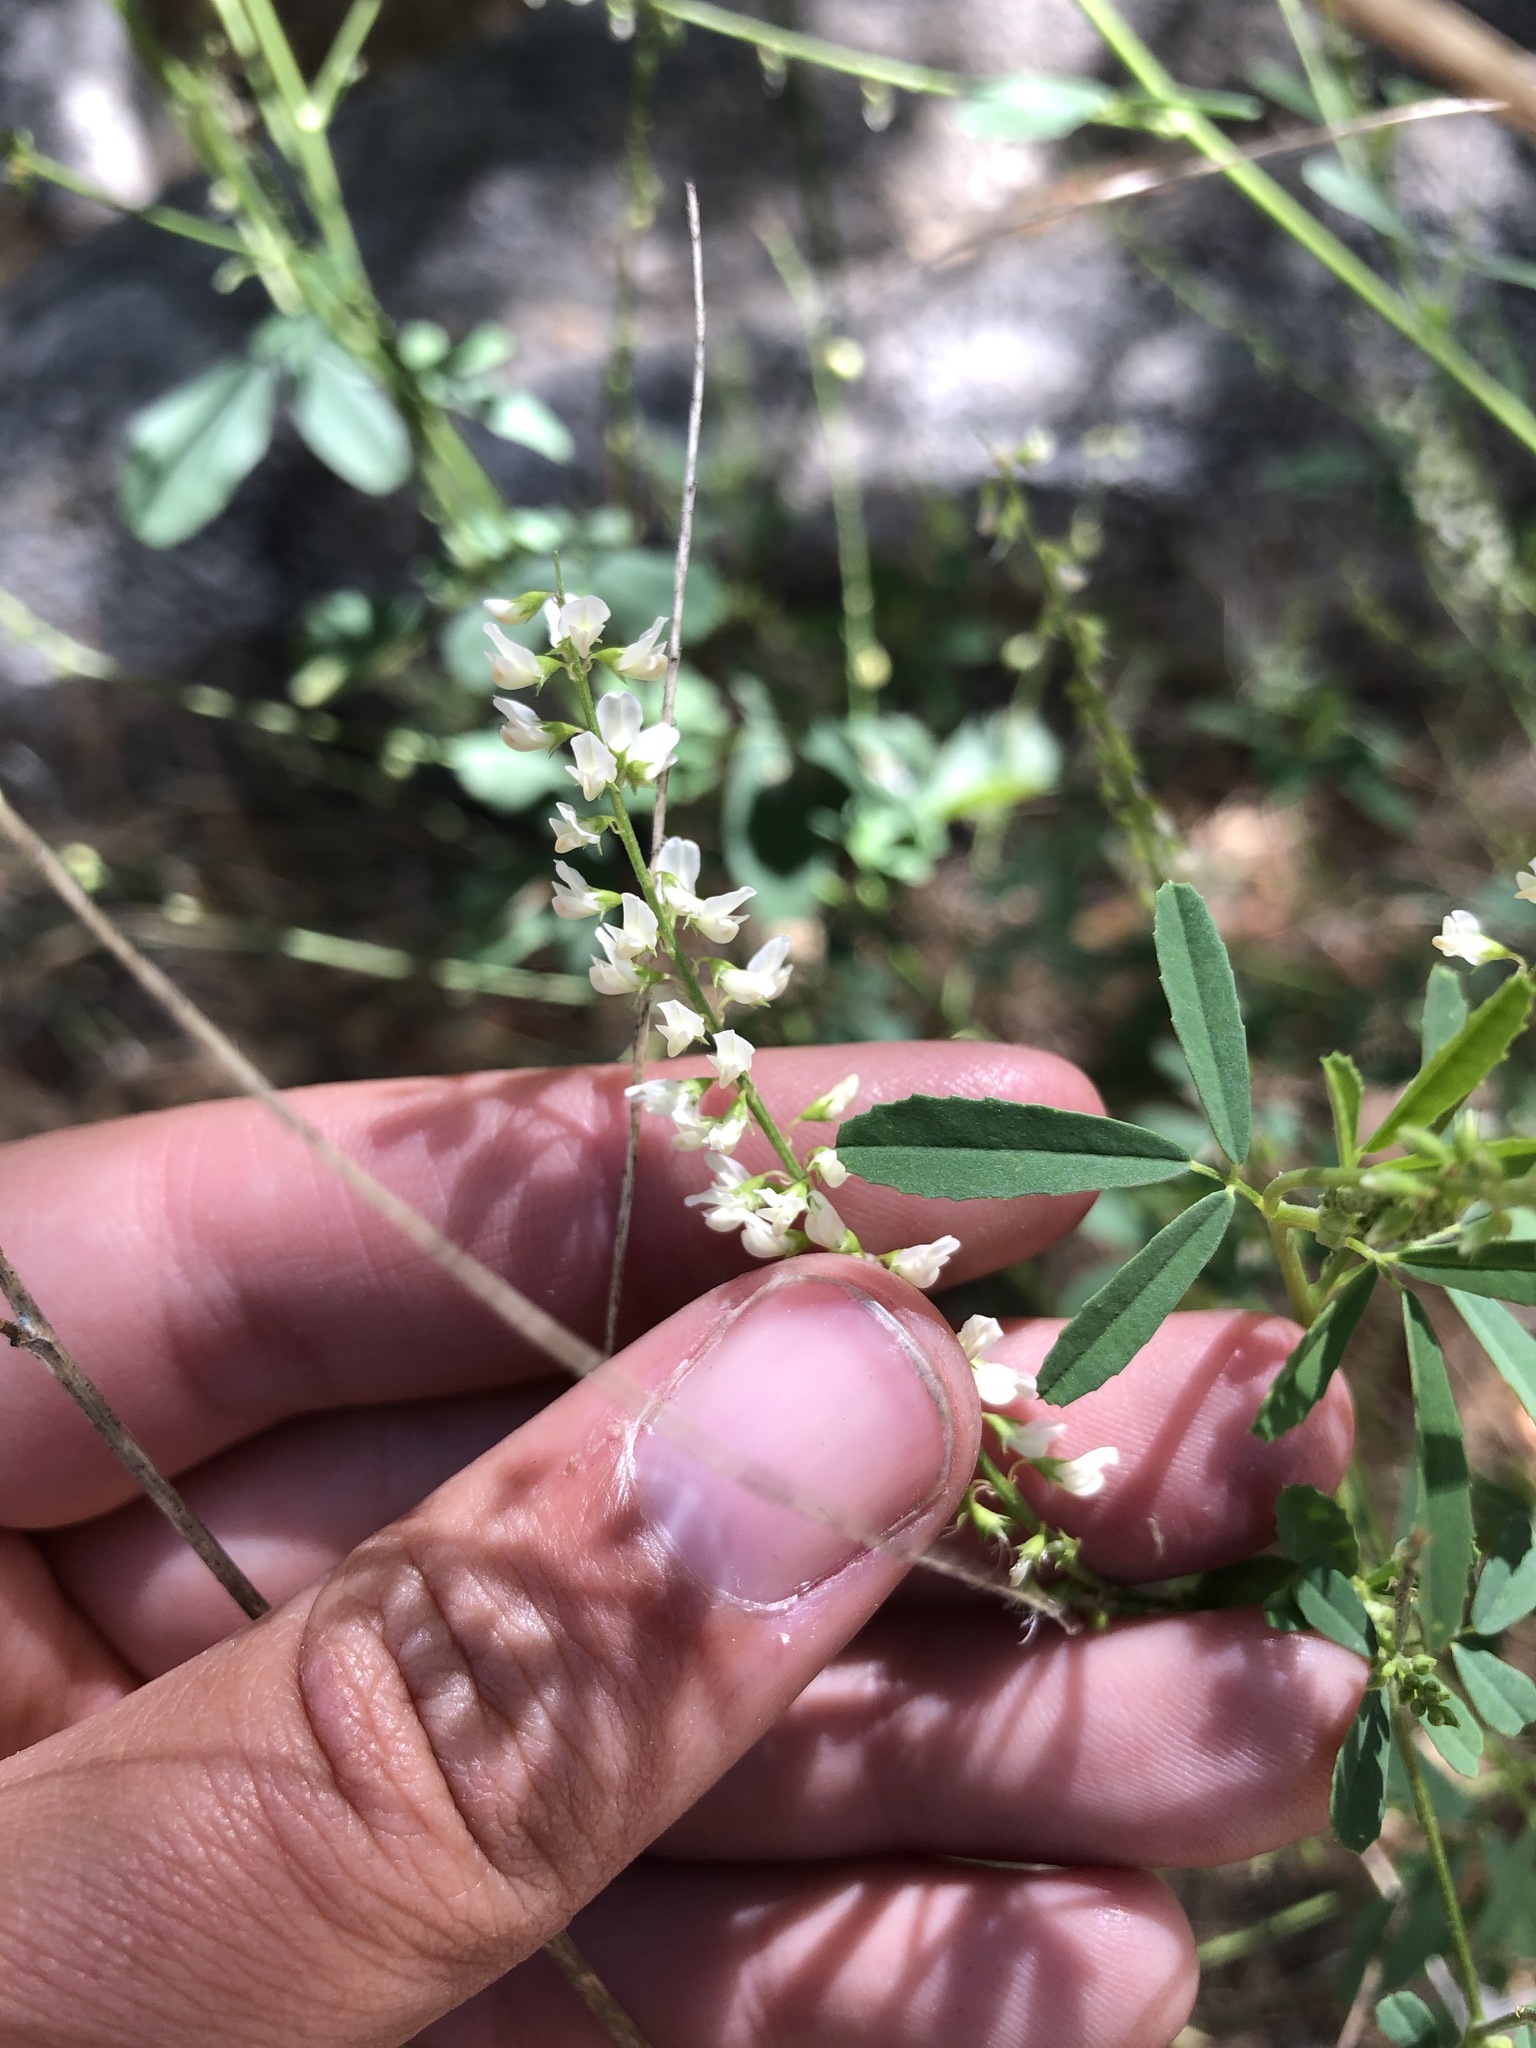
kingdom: Plantae
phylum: Tracheophyta
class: Magnoliopsida
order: Fabales
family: Fabaceae
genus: Melilotus
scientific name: Melilotus albus
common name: White melilot
